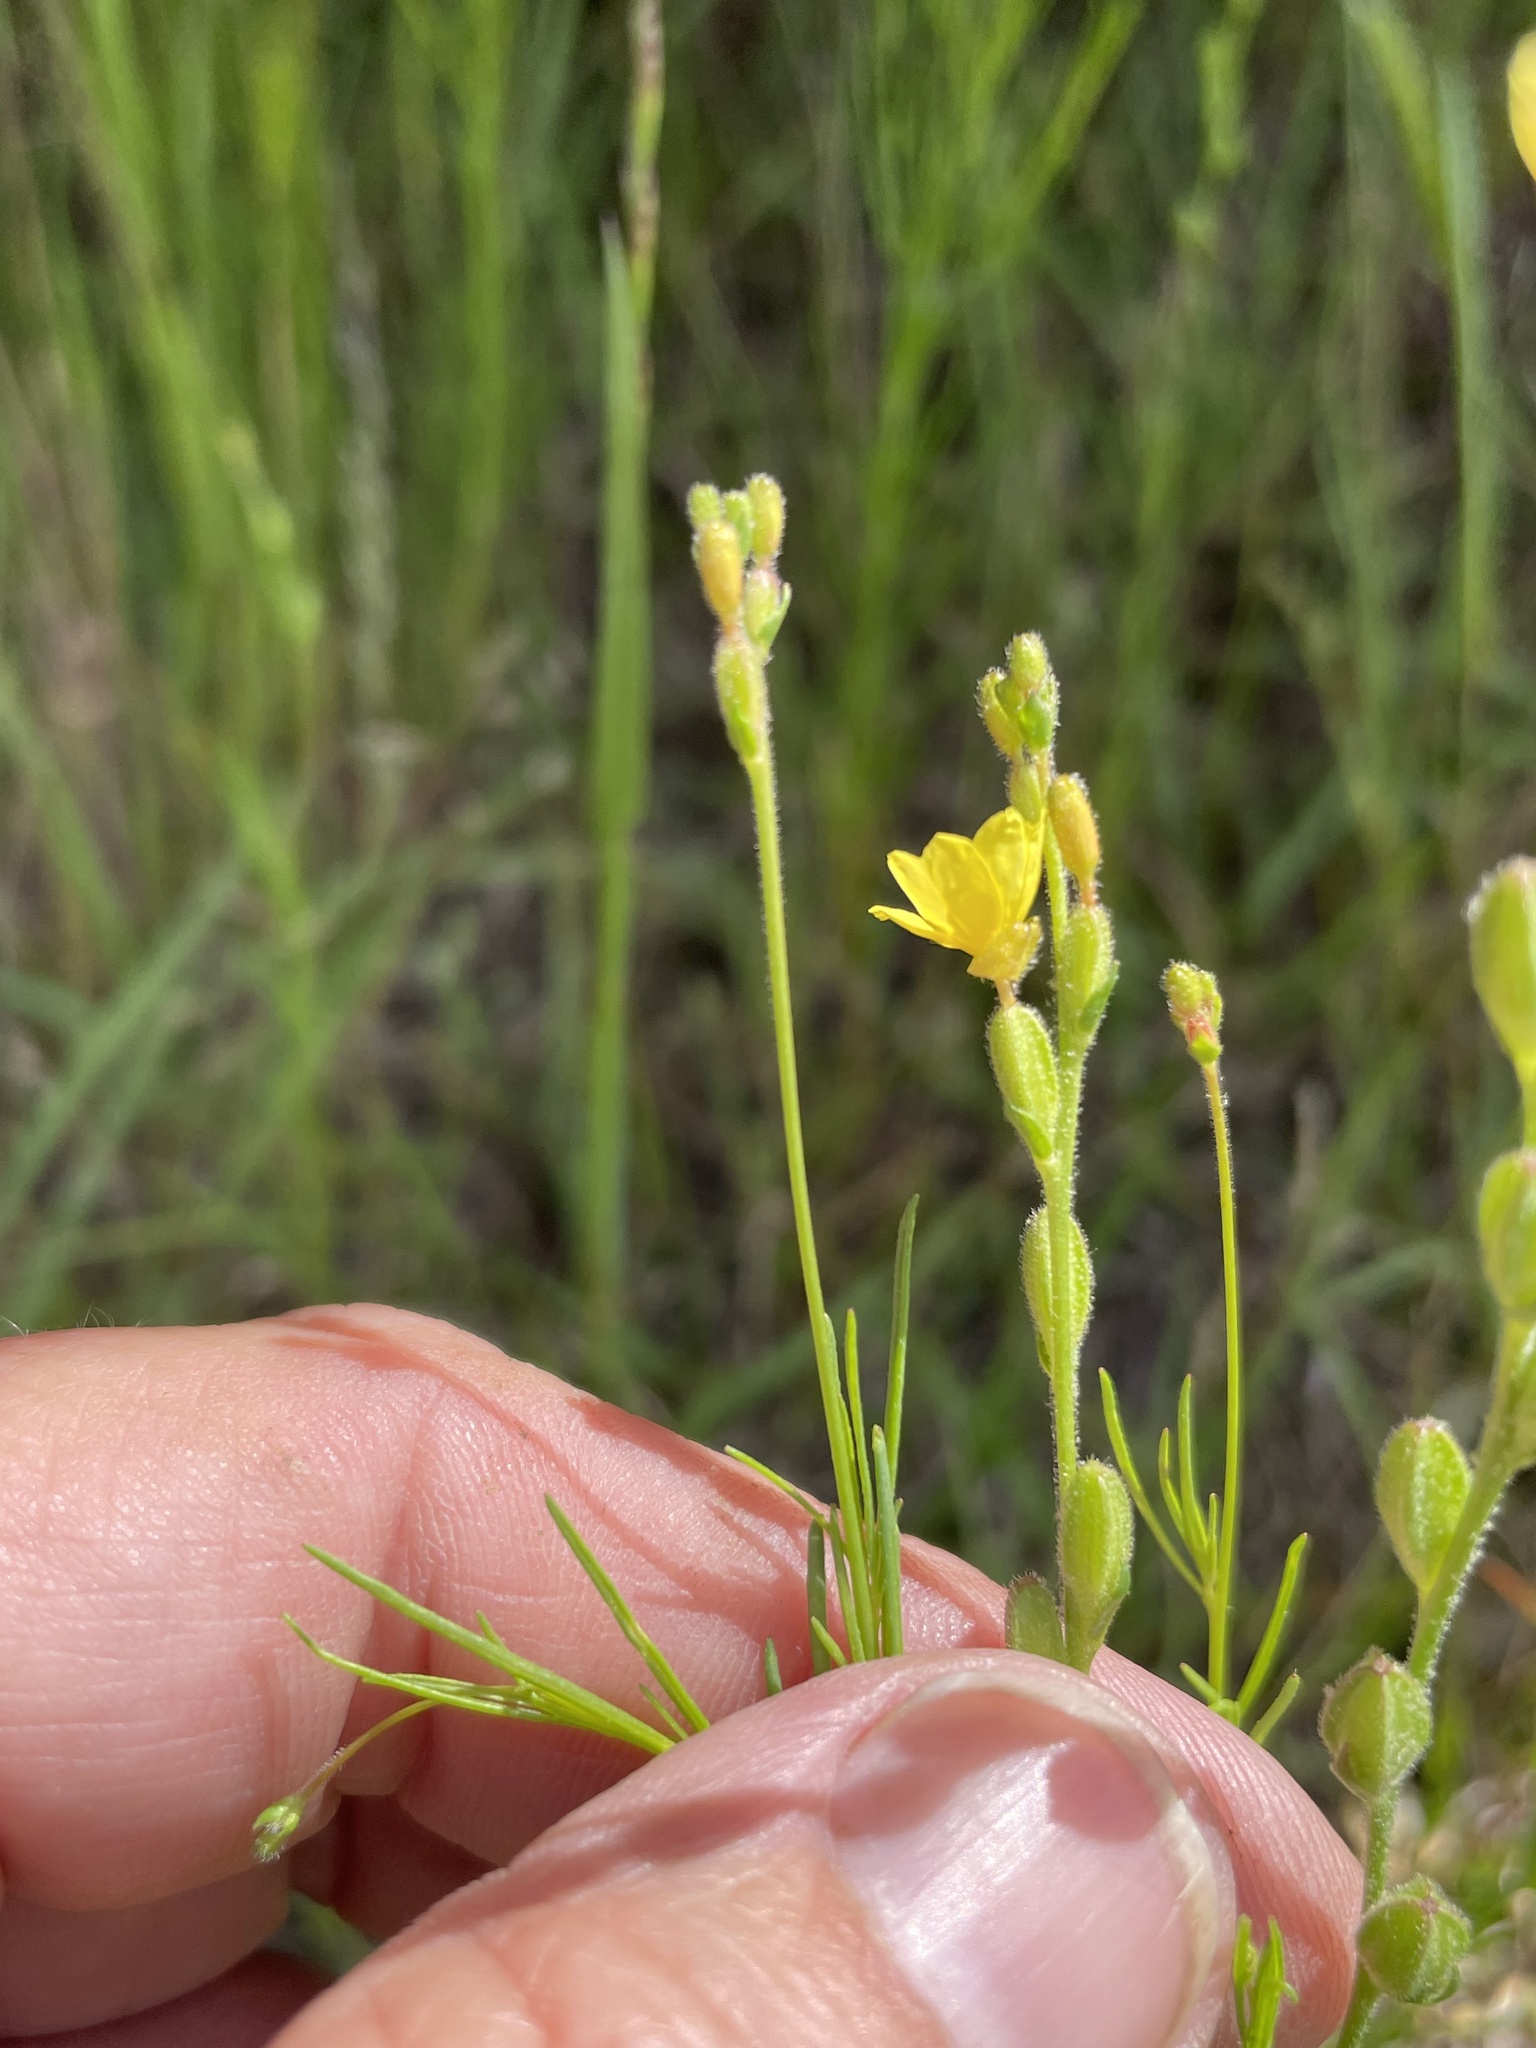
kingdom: Plantae
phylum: Tracheophyta
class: Magnoliopsida
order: Myrtales
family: Onagraceae
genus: Oenothera
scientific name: Oenothera linifolia
